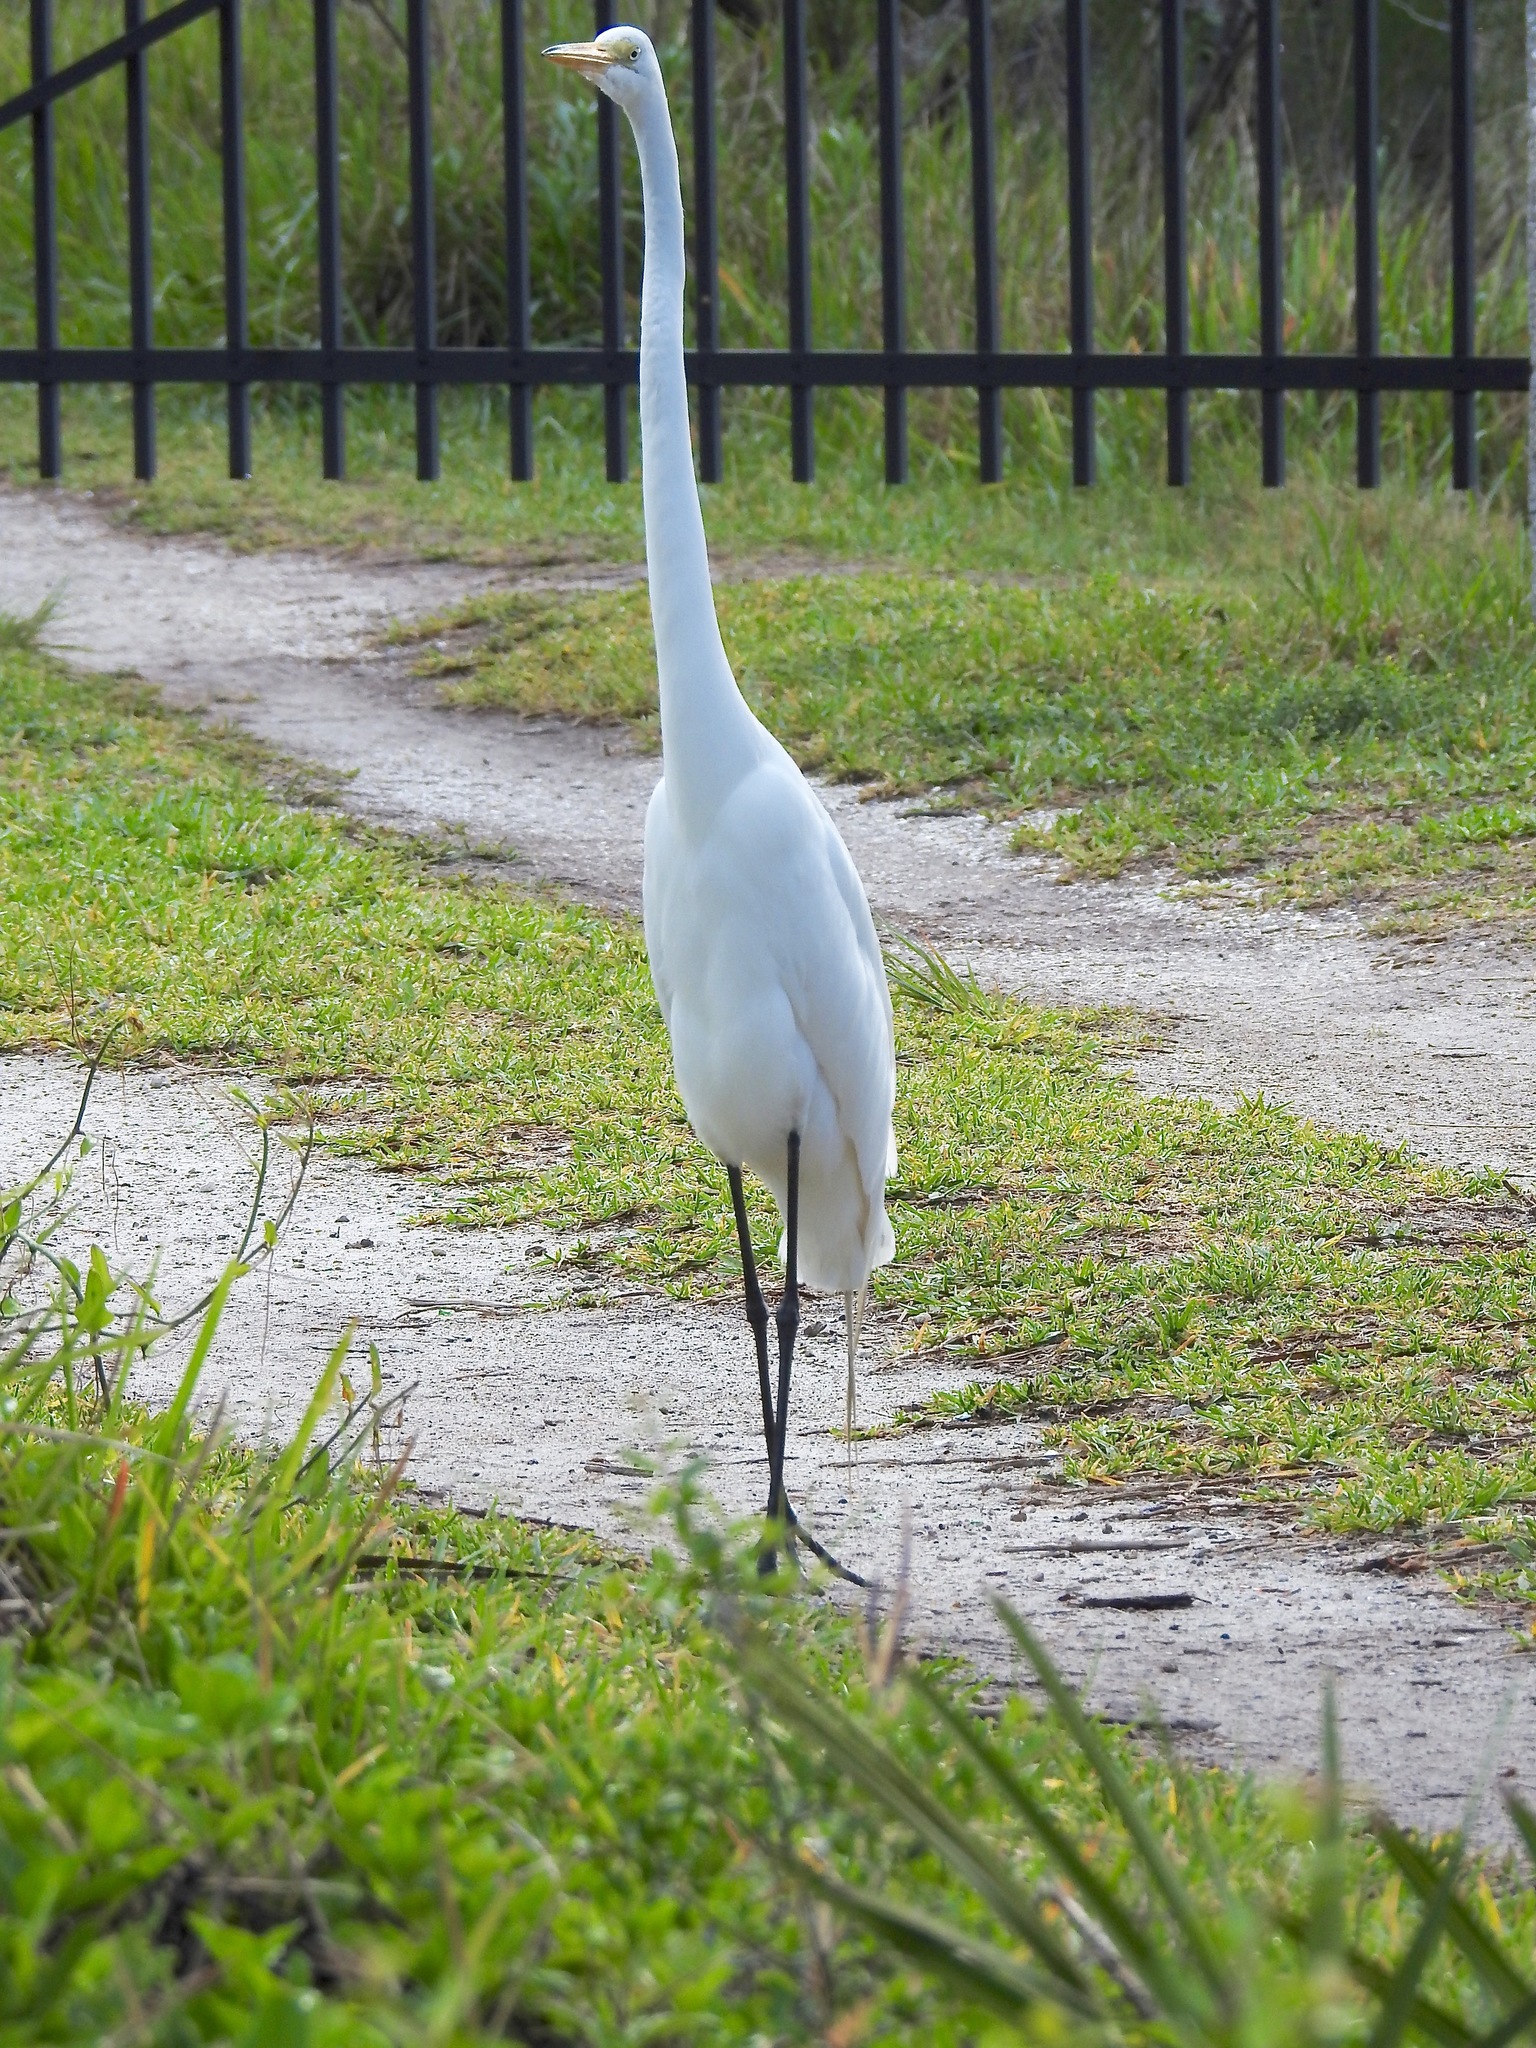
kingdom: Animalia
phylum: Chordata
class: Aves
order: Pelecaniformes
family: Ardeidae
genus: Ardea
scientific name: Ardea alba
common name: Great egret
